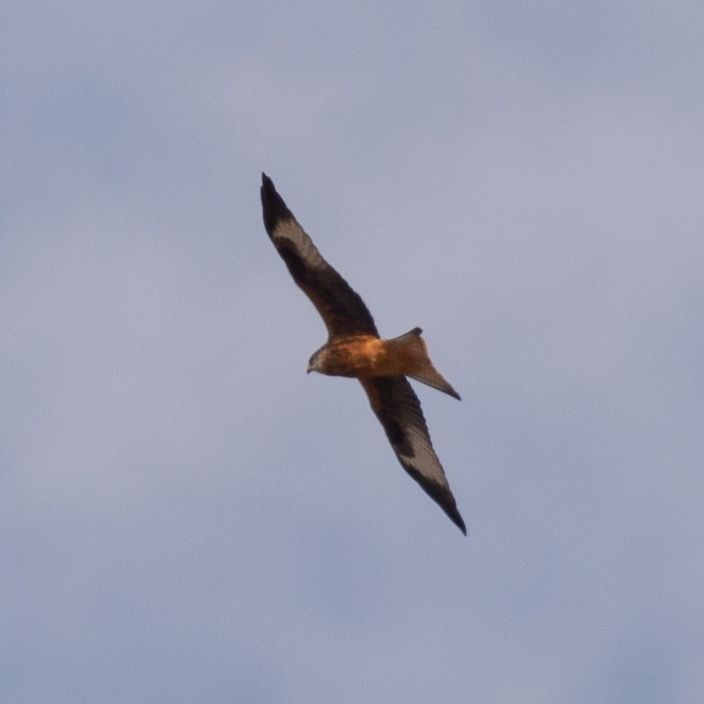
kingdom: Animalia
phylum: Chordata
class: Aves
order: Accipitriformes
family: Accipitridae
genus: Milvus
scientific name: Milvus milvus
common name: Red kite
